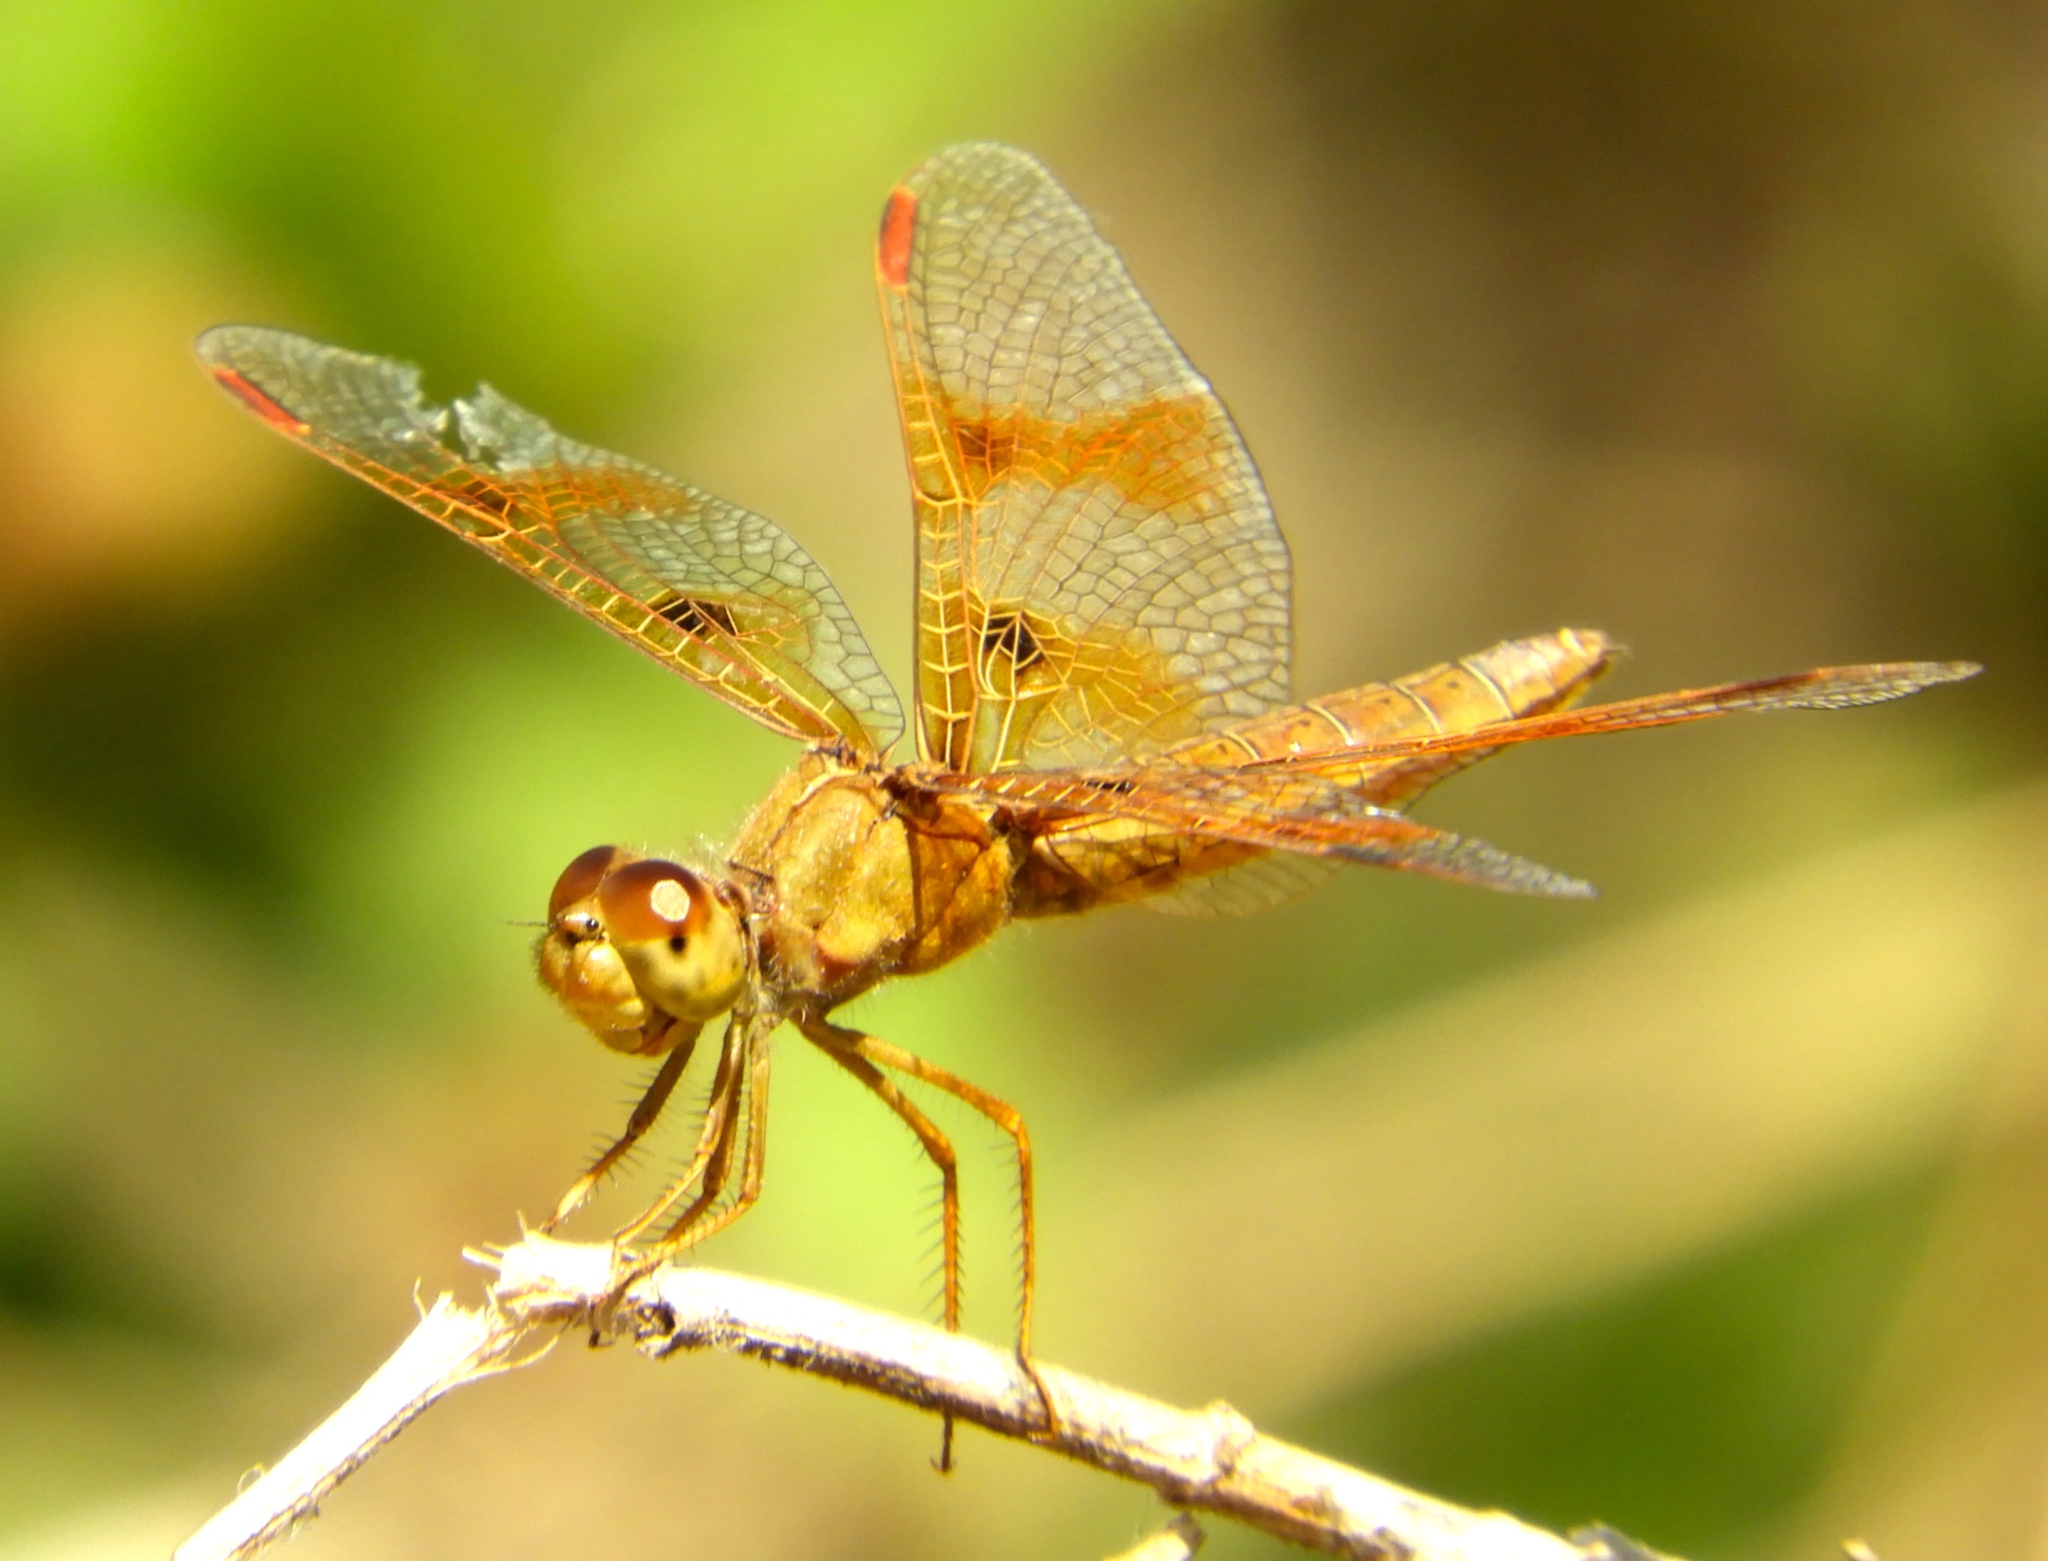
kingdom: Animalia
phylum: Arthropoda
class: Insecta
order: Odonata
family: Libellulidae
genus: Perithemis
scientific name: Perithemis intensa
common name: Mexican amberwing
